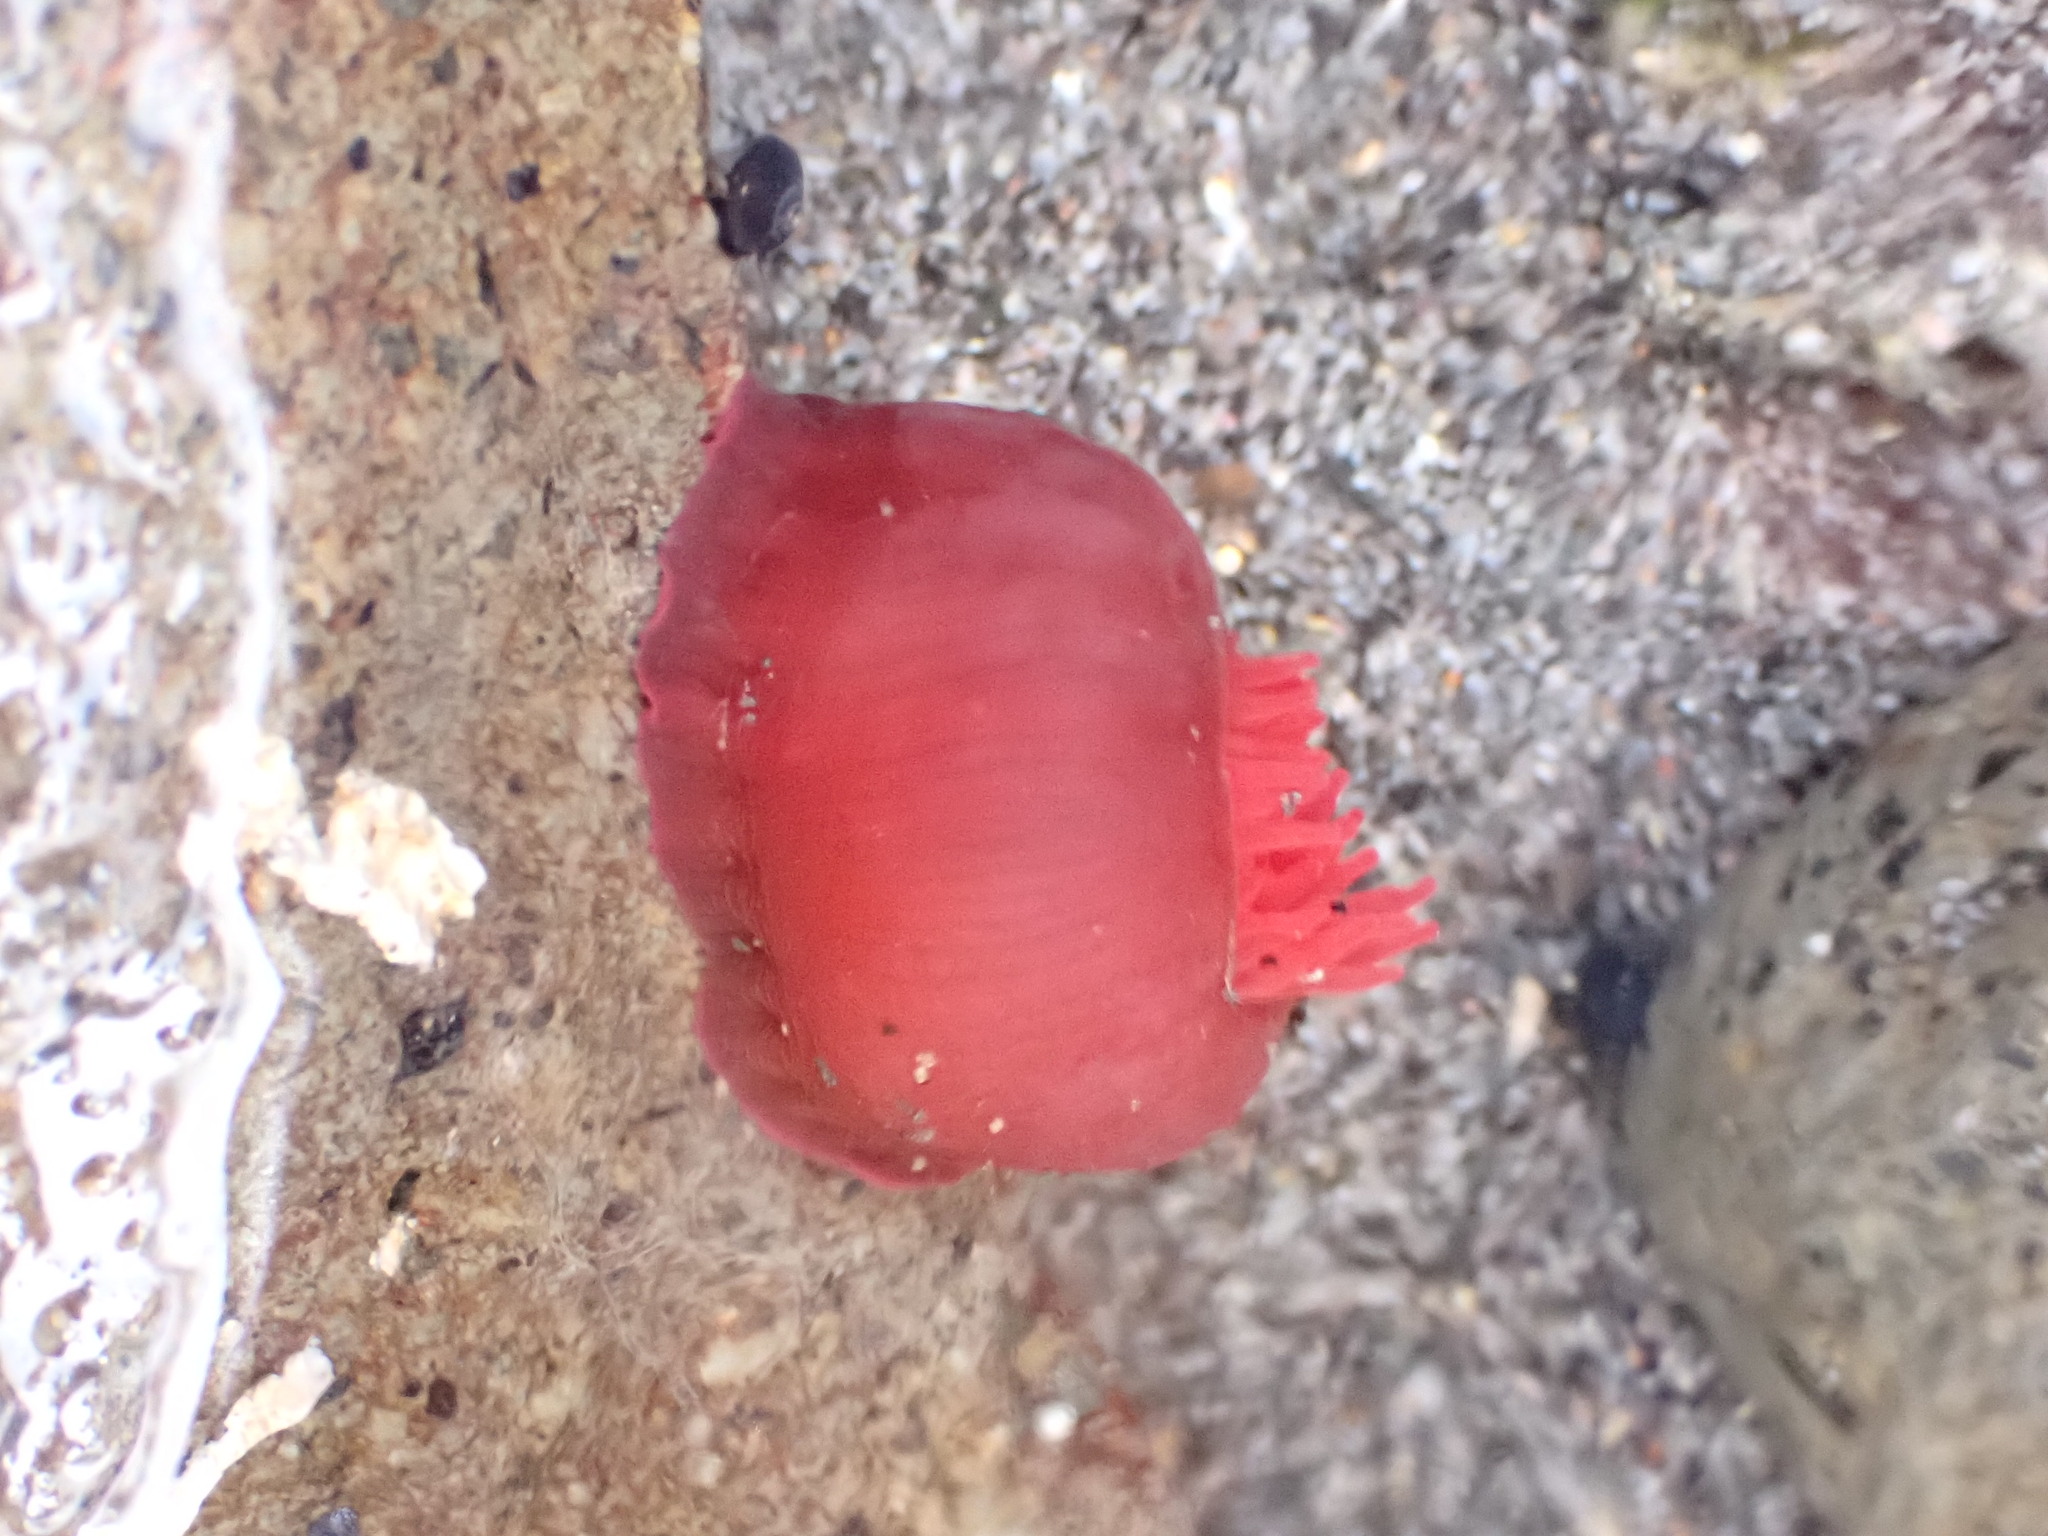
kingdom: Animalia
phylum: Cnidaria
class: Anthozoa
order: Actiniaria
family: Actiniidae
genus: Actinia
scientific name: Actinia tenebrosa
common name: Waratah anemone
